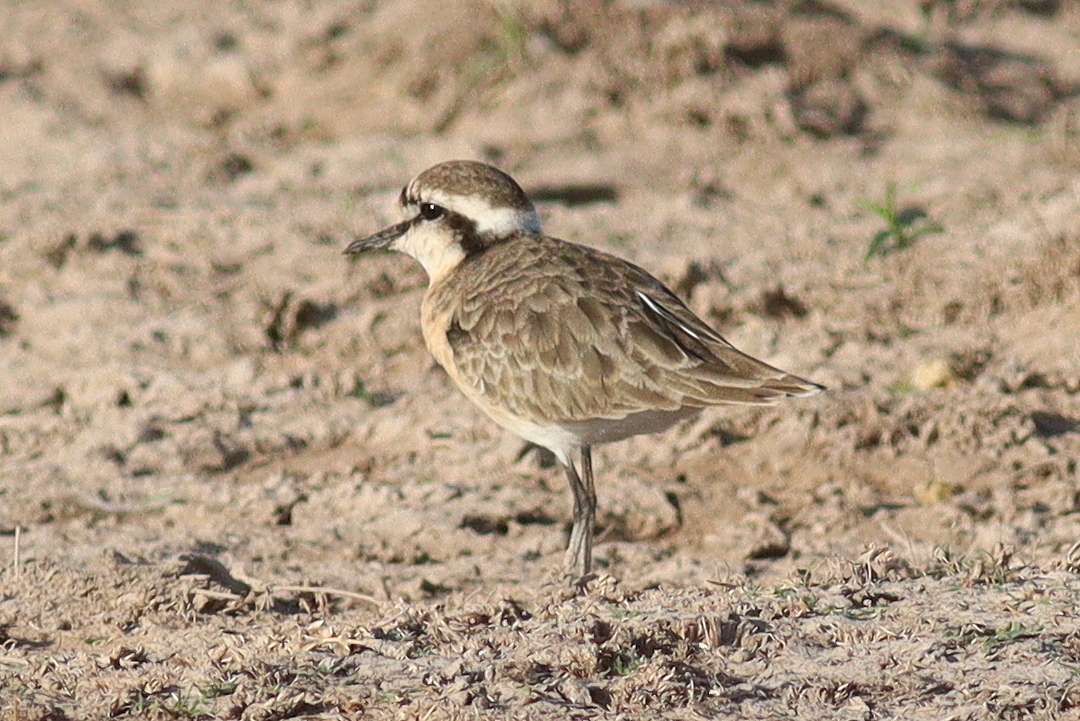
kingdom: Animalia
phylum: Chordata
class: Aves
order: Charadriiformes
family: Charadriidae
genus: Anarhynchus
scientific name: Anarhynchus
